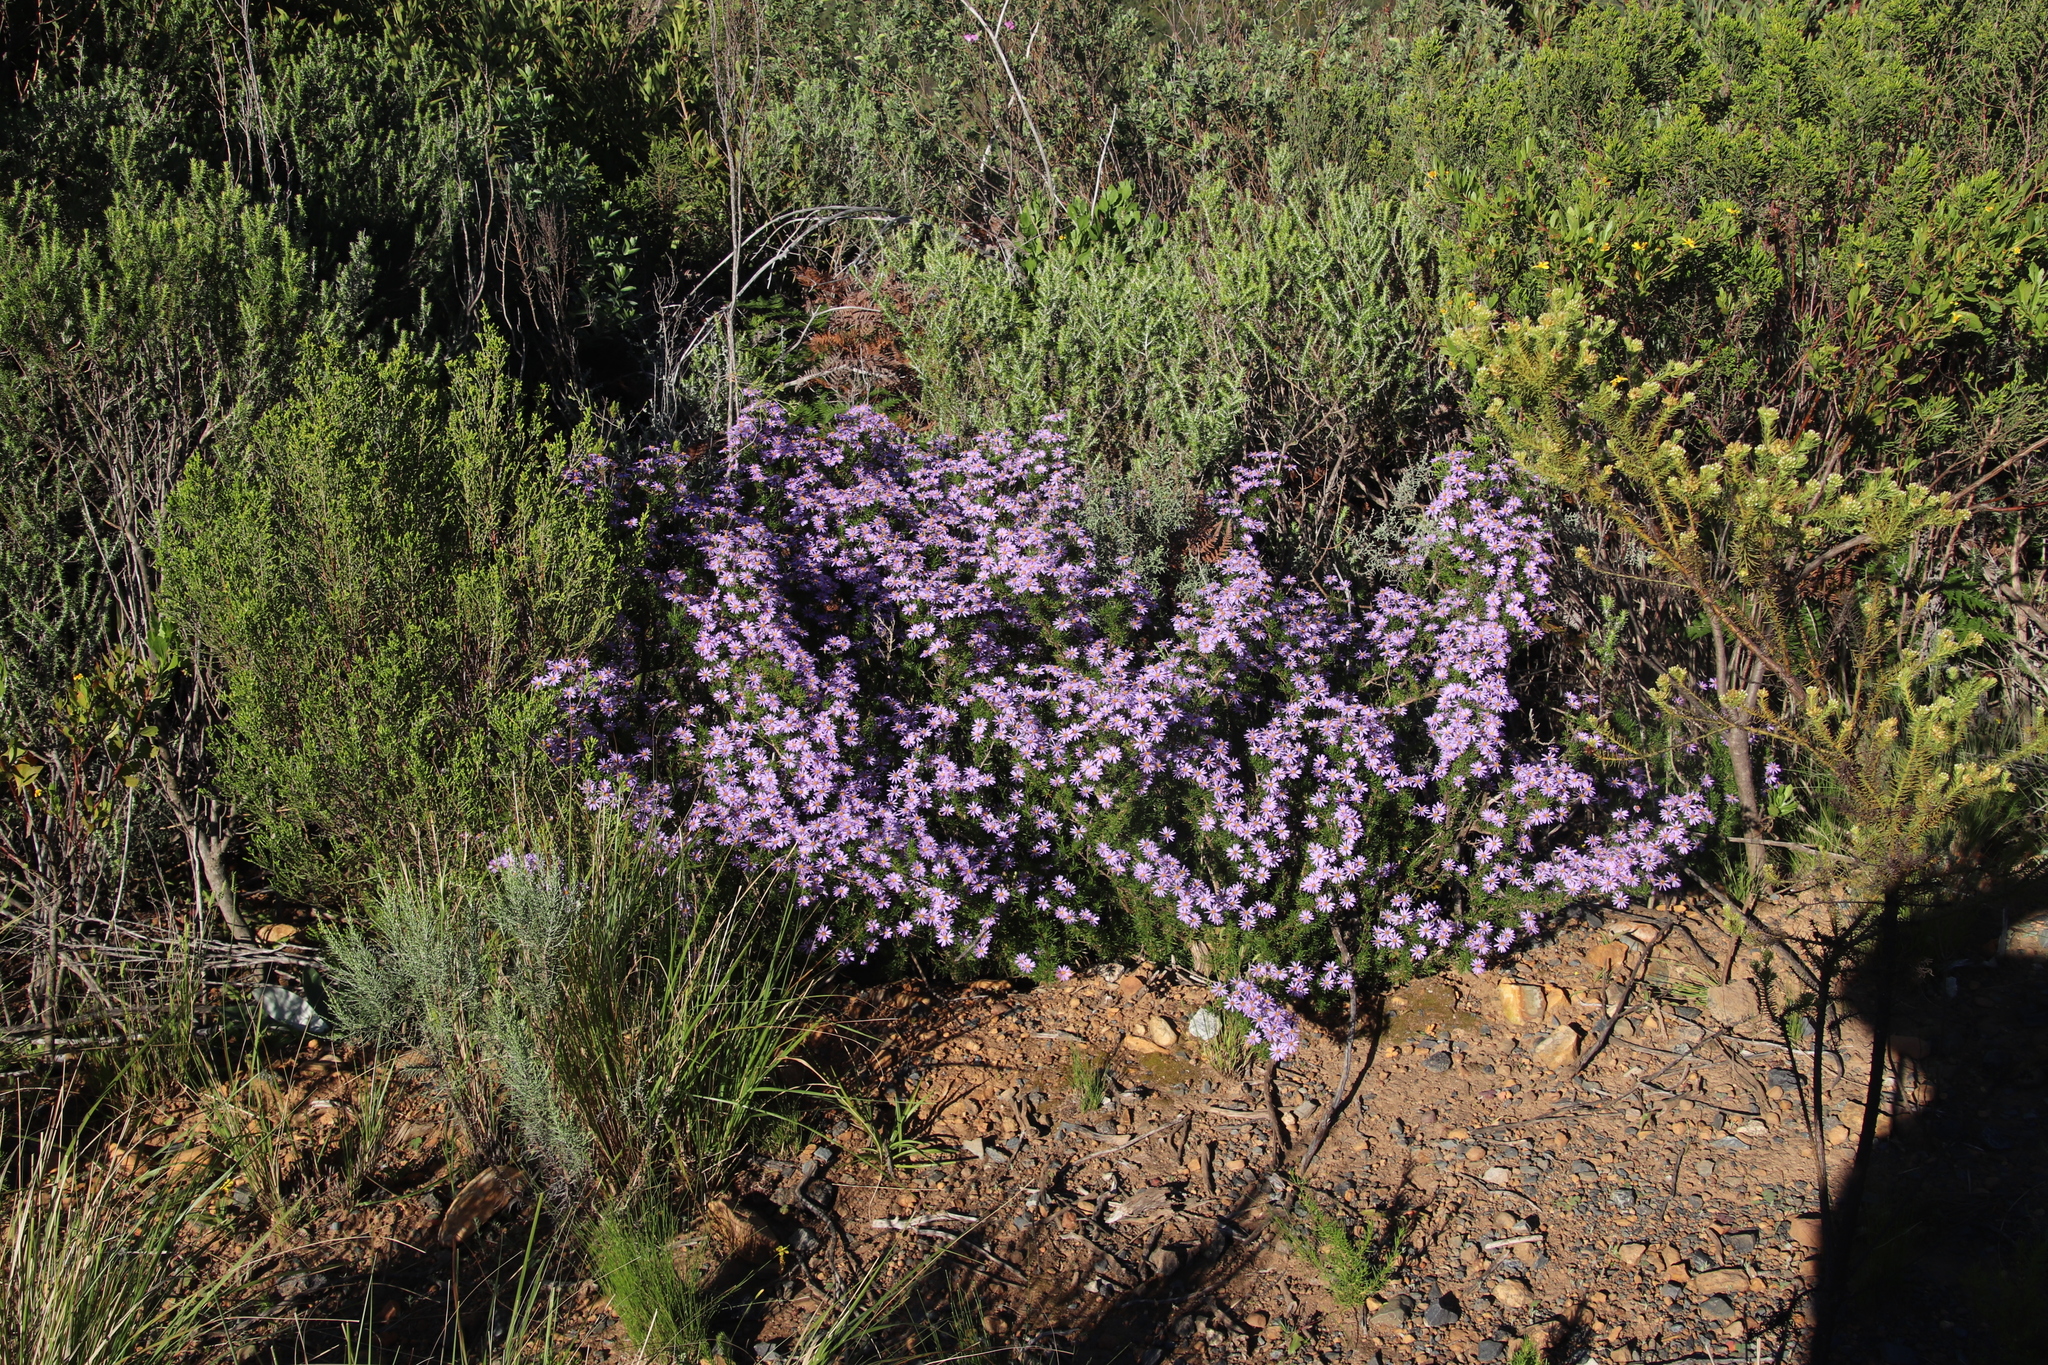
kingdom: Plantae
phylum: Tracheophyta
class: Magnoliopsida
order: Asterales
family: Asteraceae
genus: Felicia
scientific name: Felicia fruticosa
